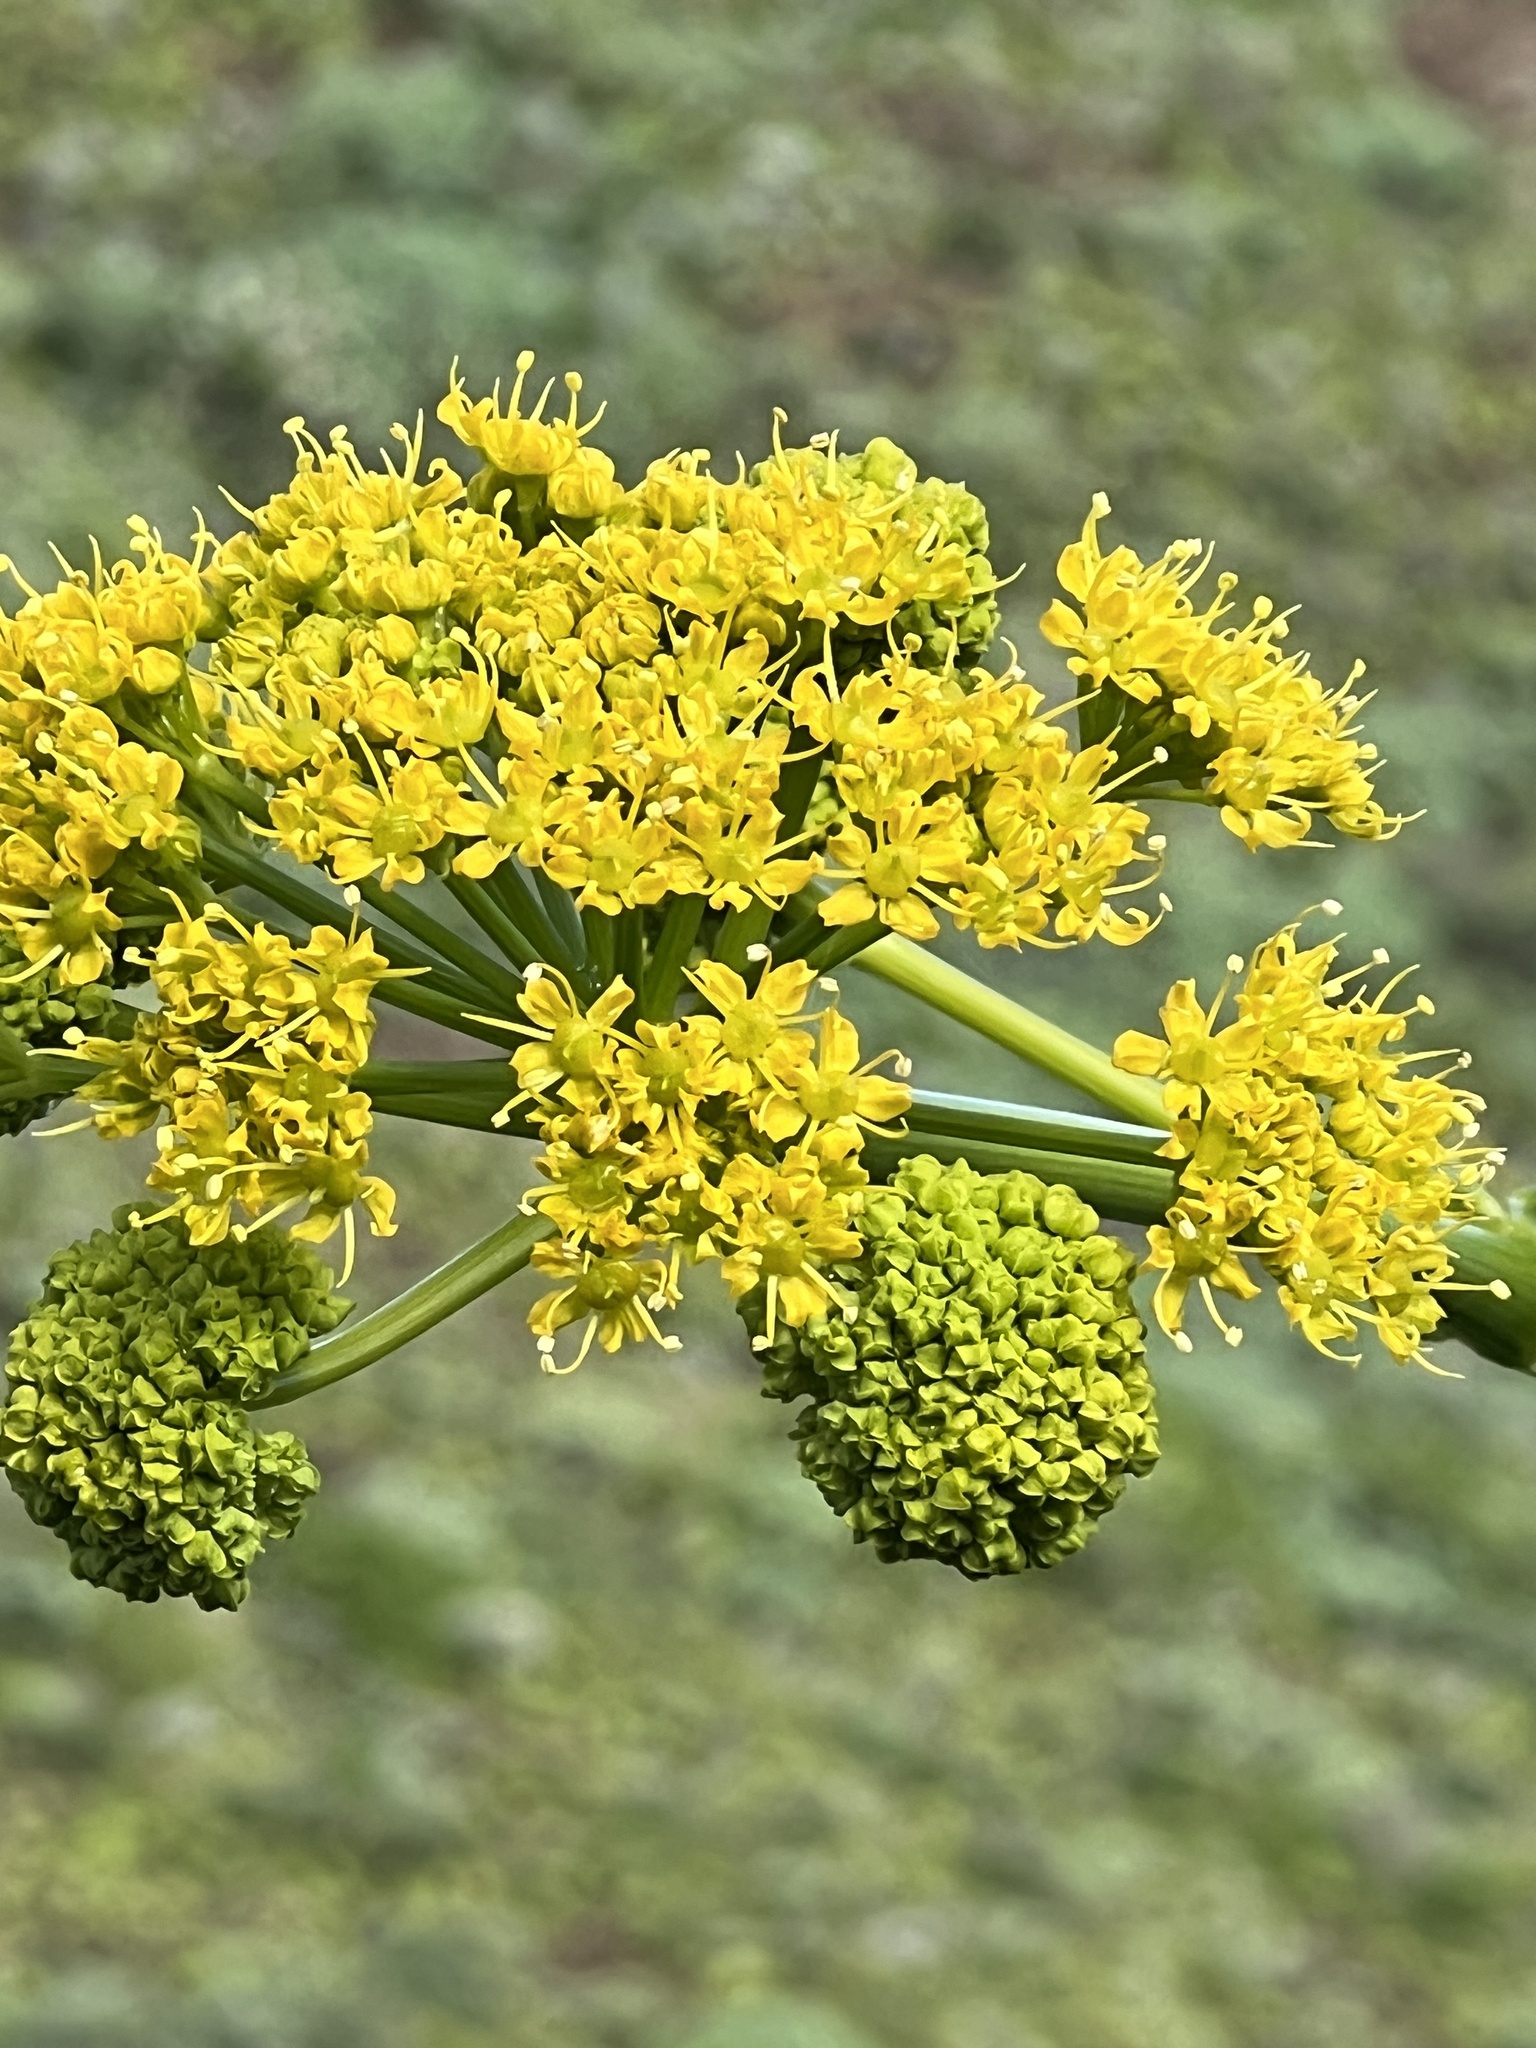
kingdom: Plantae
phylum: Tracheophyta
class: Magnoliopsida
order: Apiales
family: Apiaceae
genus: Ferula
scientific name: Ferula communis
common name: Giant fennel
